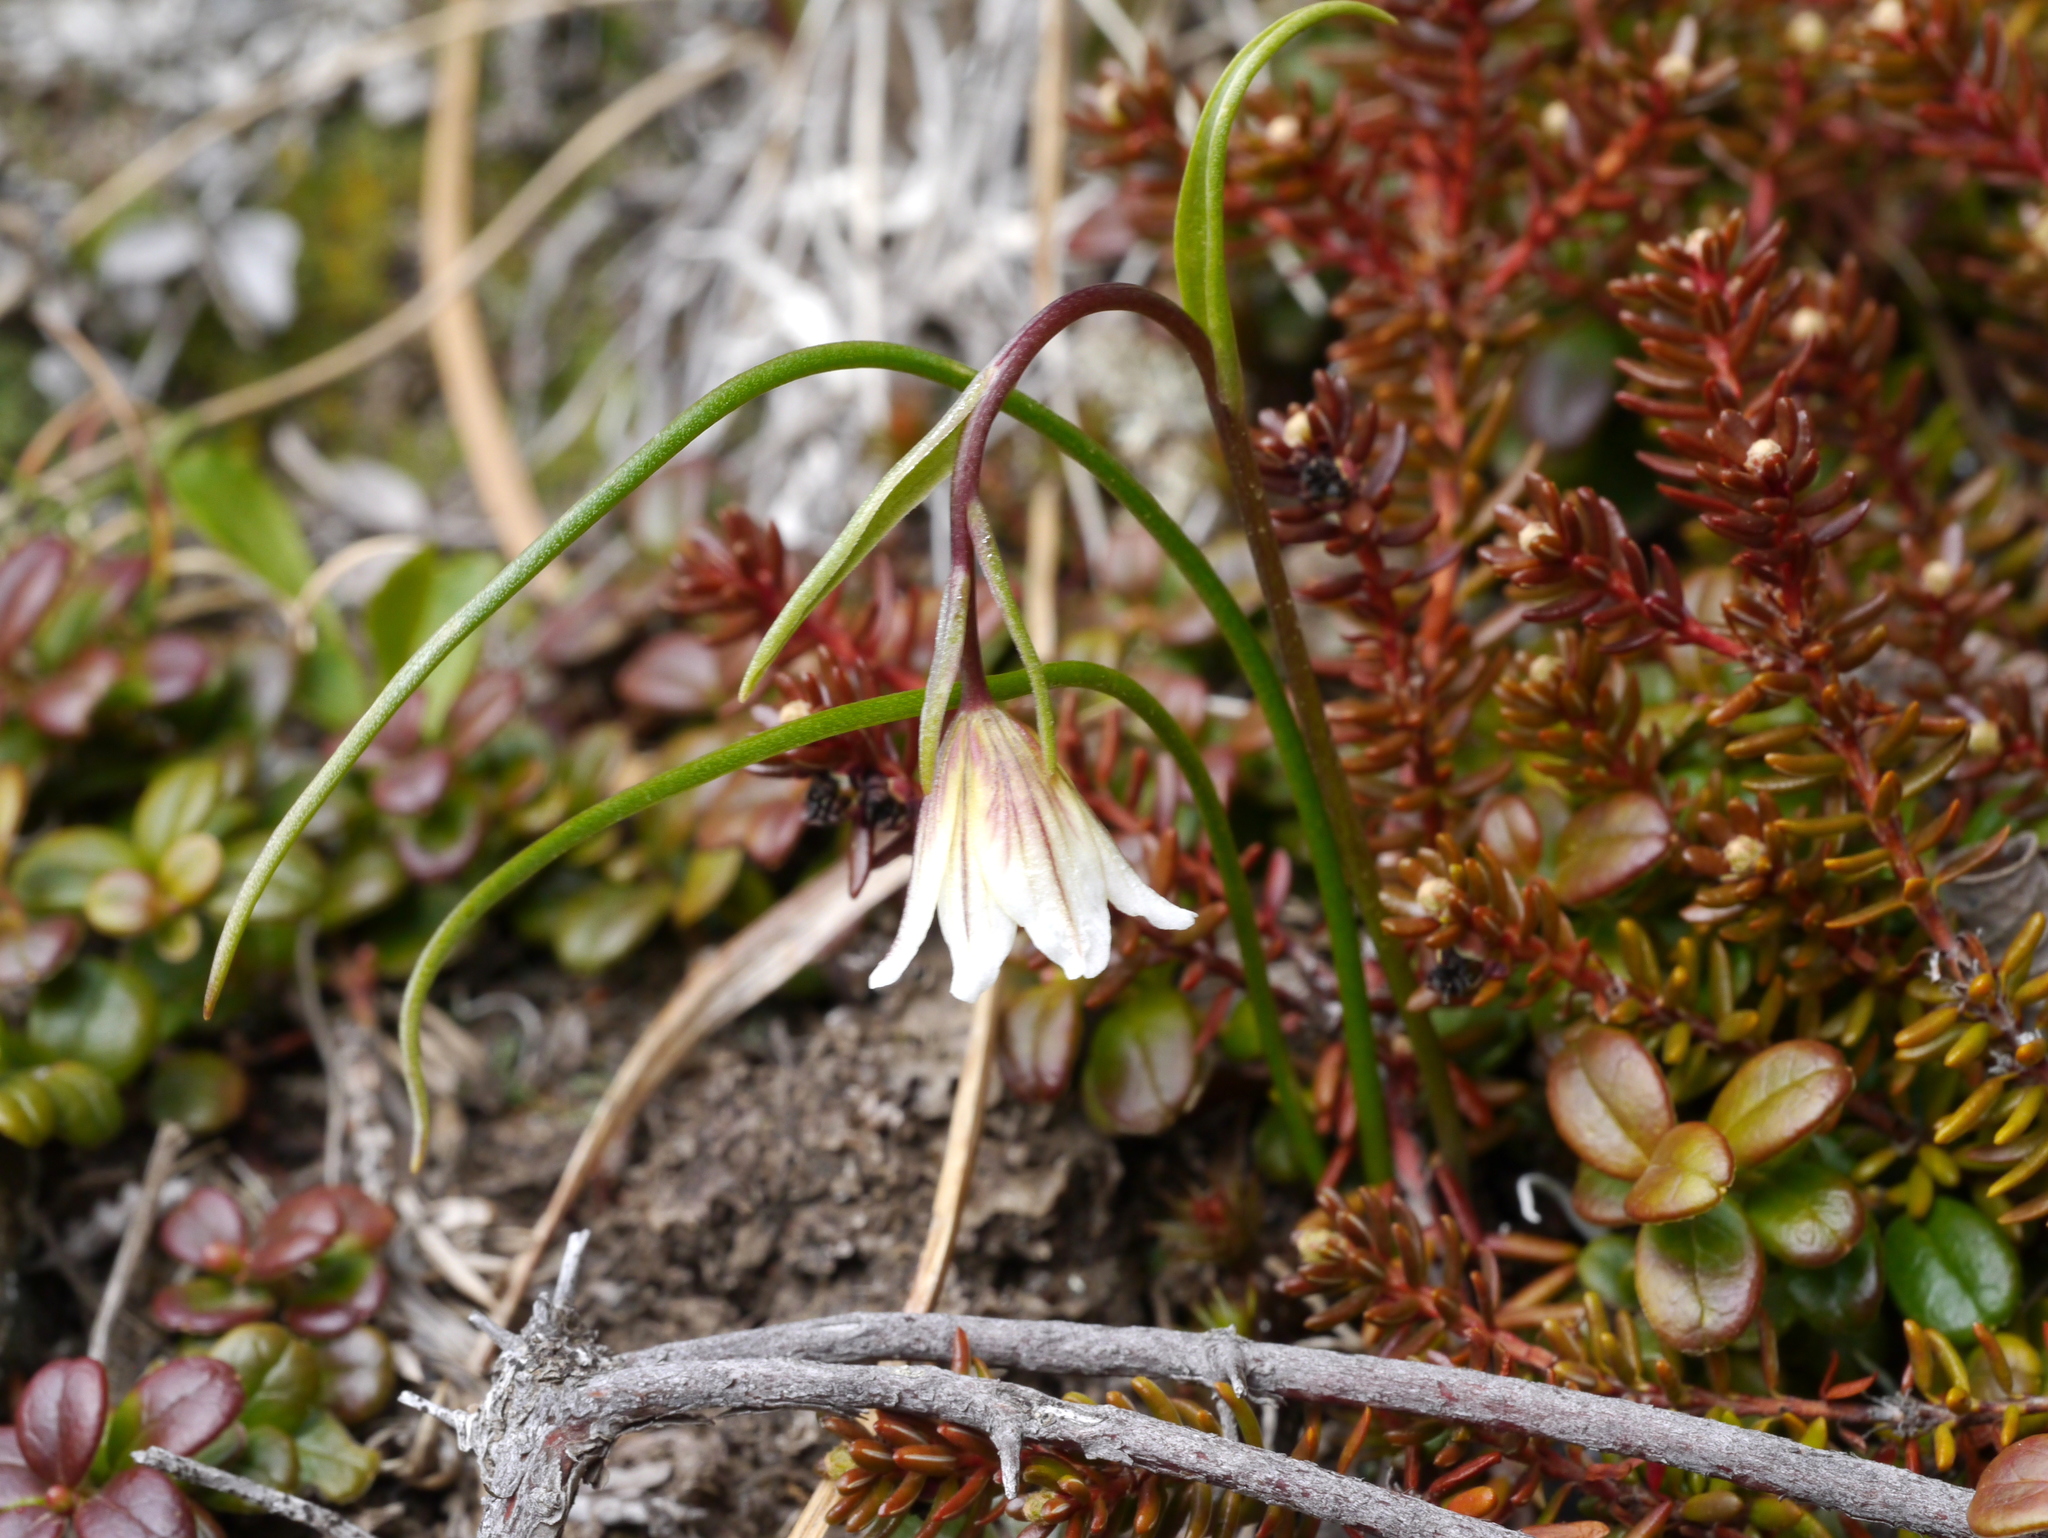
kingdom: Plantae
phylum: Tracheophyta
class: Liliopsida
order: Liliales
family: Liliaceae
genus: Gagea
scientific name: Gagea serotina
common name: Snowdon lily
